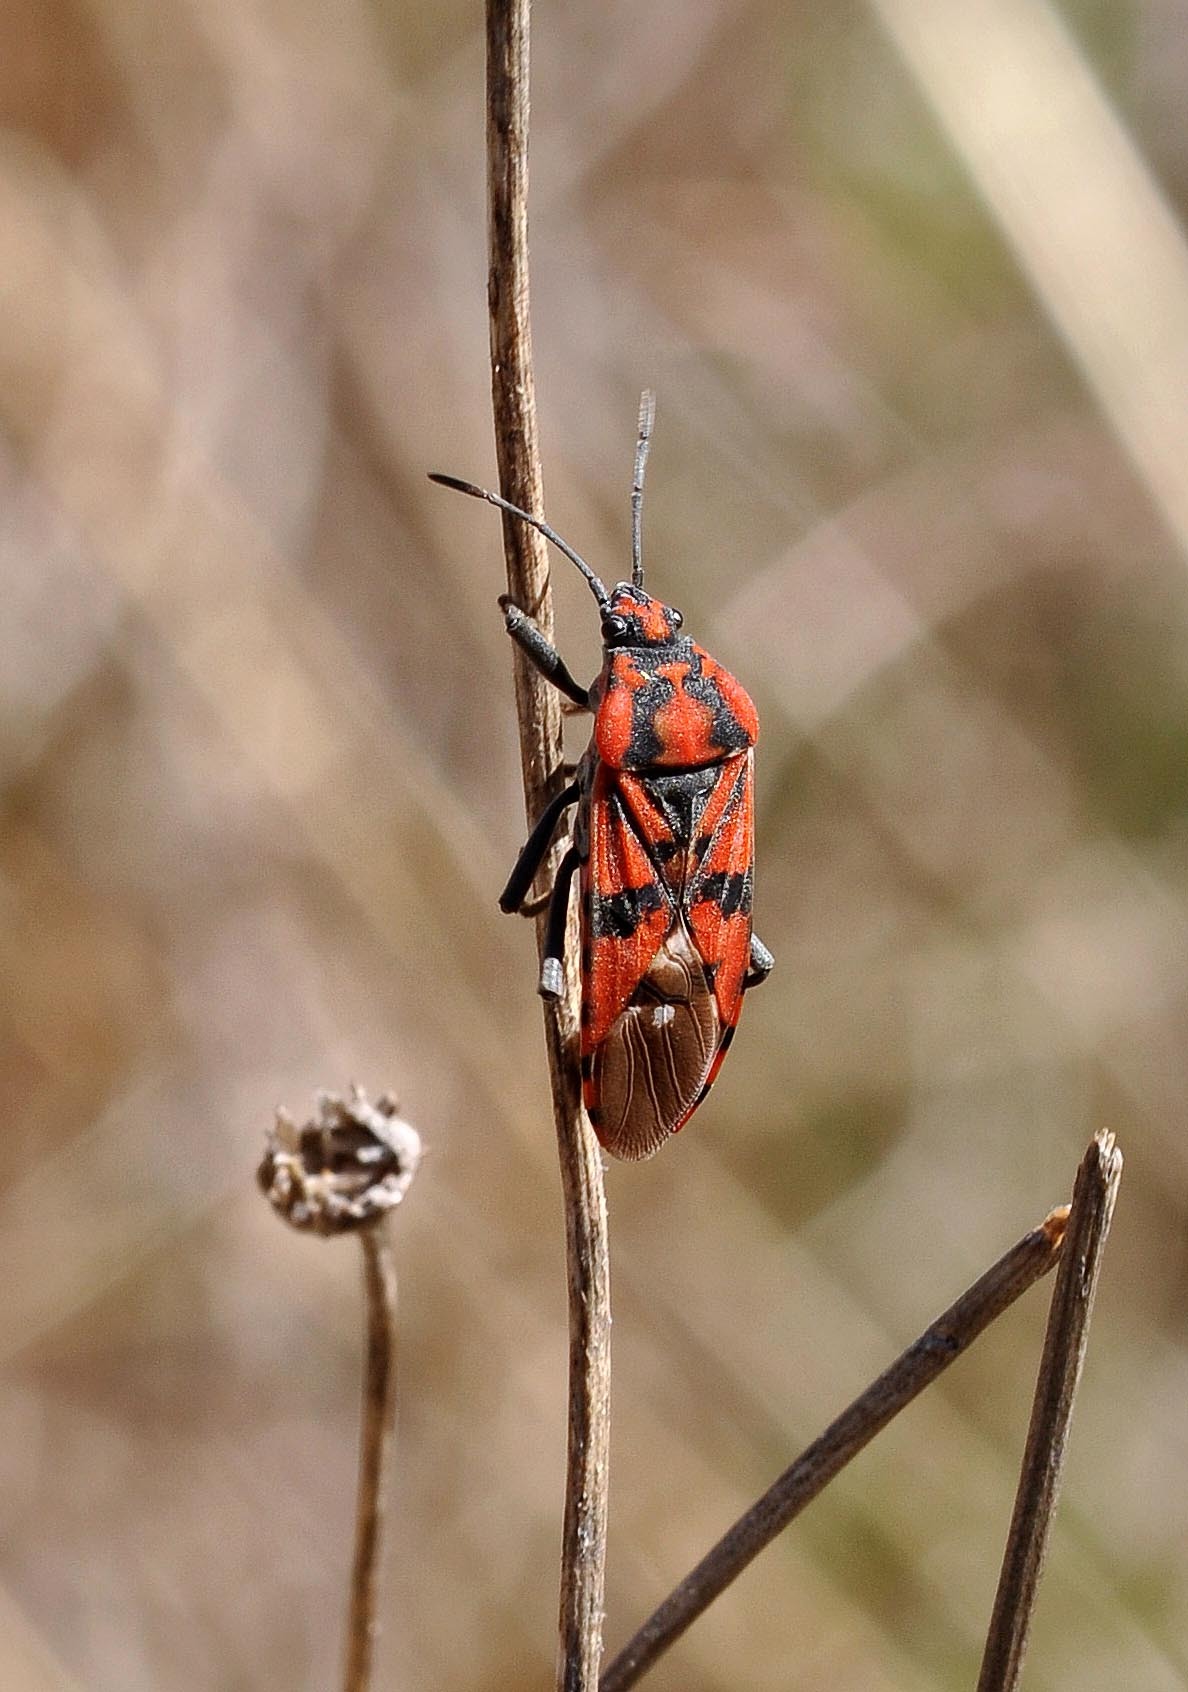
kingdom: Animalia
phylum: Arthropoda
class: Insecta
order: Hemiptera
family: Lygaeidae
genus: Spilostethus
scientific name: Spilostethus pandurus
